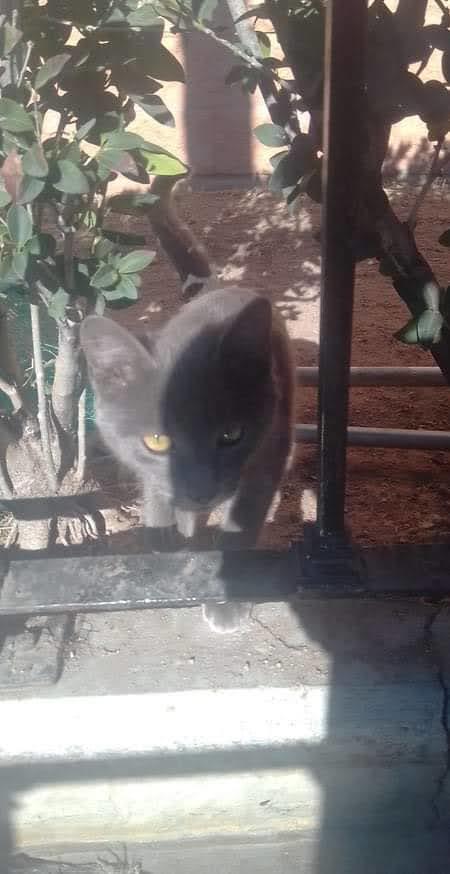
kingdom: Animalia
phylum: Chordata
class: Mammalia
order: Carnivora
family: Felidae
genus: Felis
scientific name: Felis catus
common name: Domestic cat
